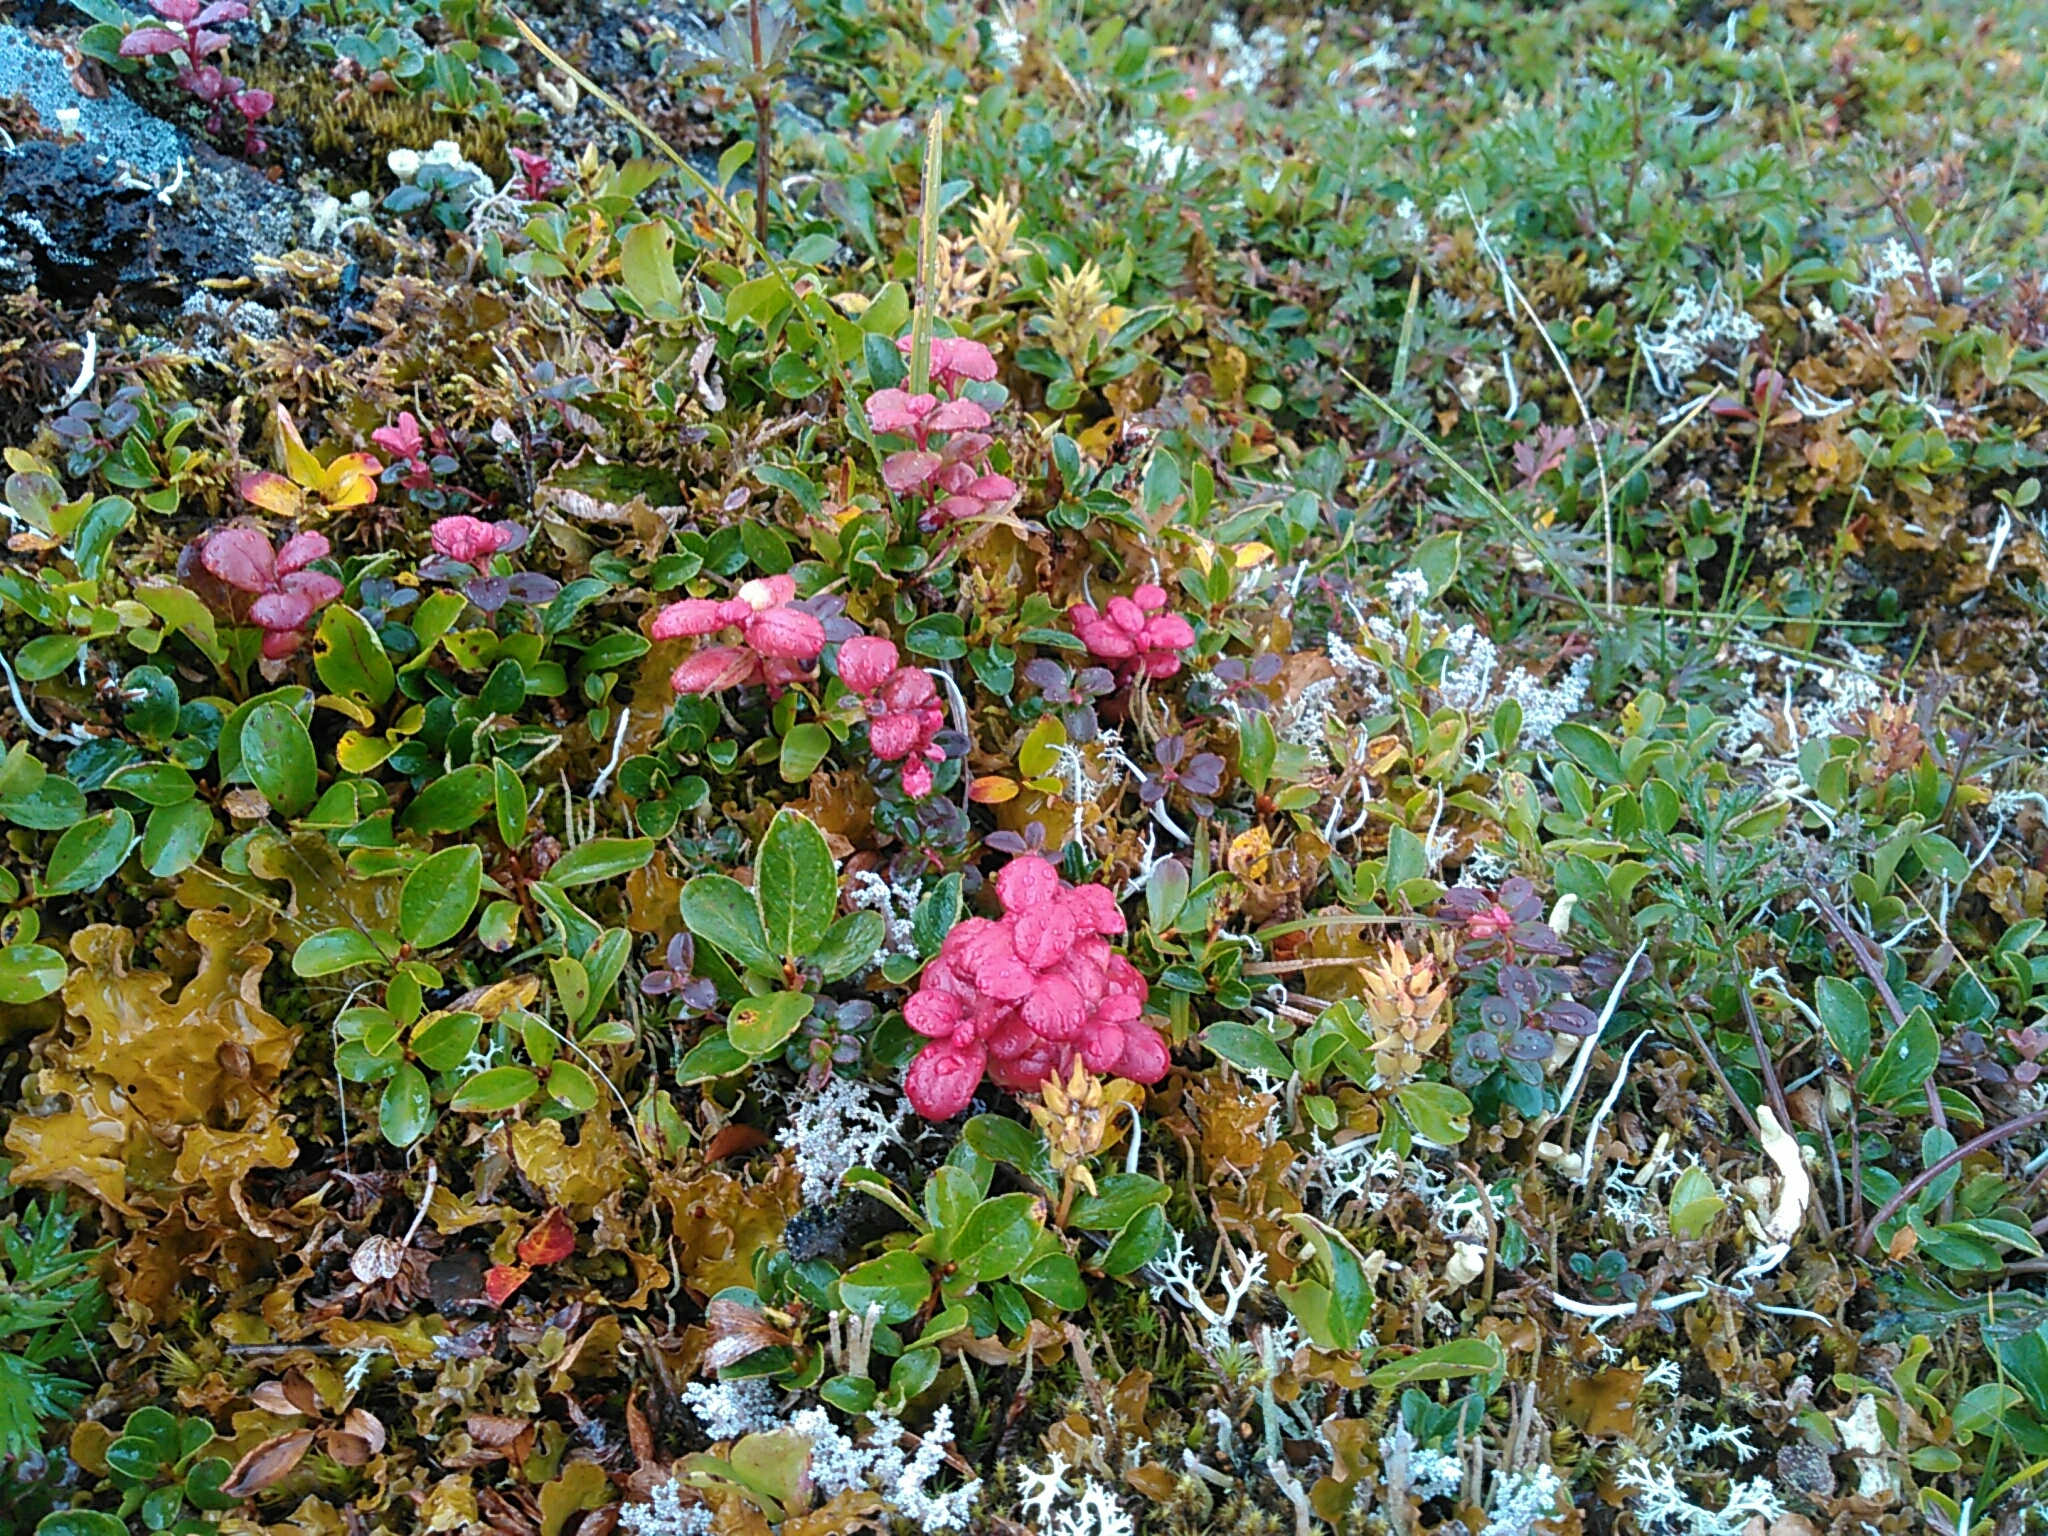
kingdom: Plantae
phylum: Tracheophyta
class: Magnoliopsida
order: Ericales
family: Ericaceae
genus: Vaccinium
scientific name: Vaccinium vitis-idaea
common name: Cowberry
